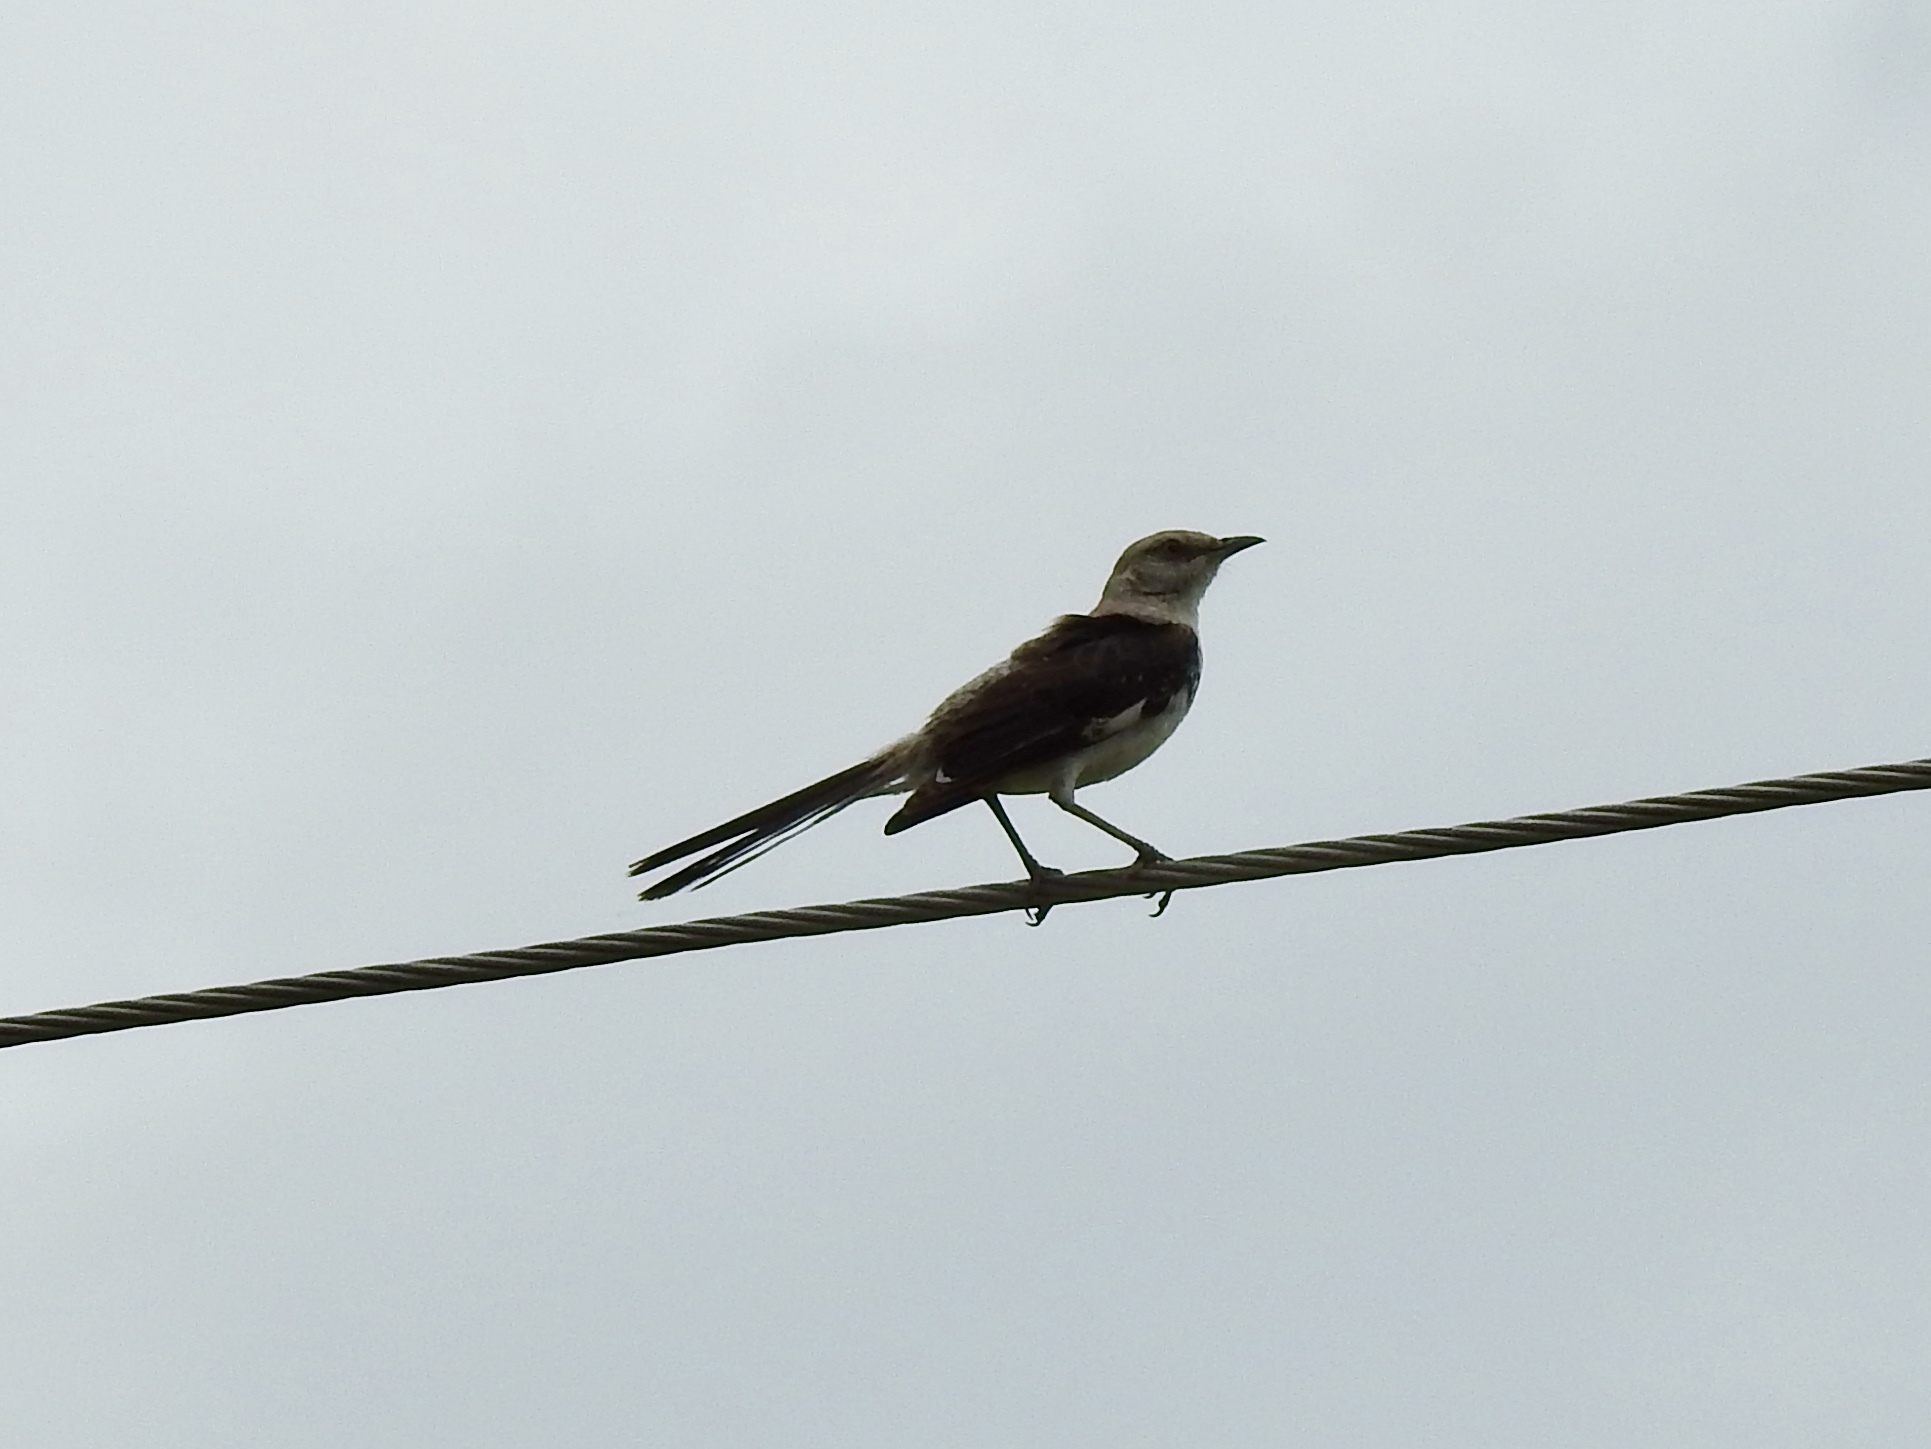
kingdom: Animalia
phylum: Chordata
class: Aves
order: Passeriformes
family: Mimidae
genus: Mimus
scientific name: Mimus polyglottos
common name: Northern mockingbird
